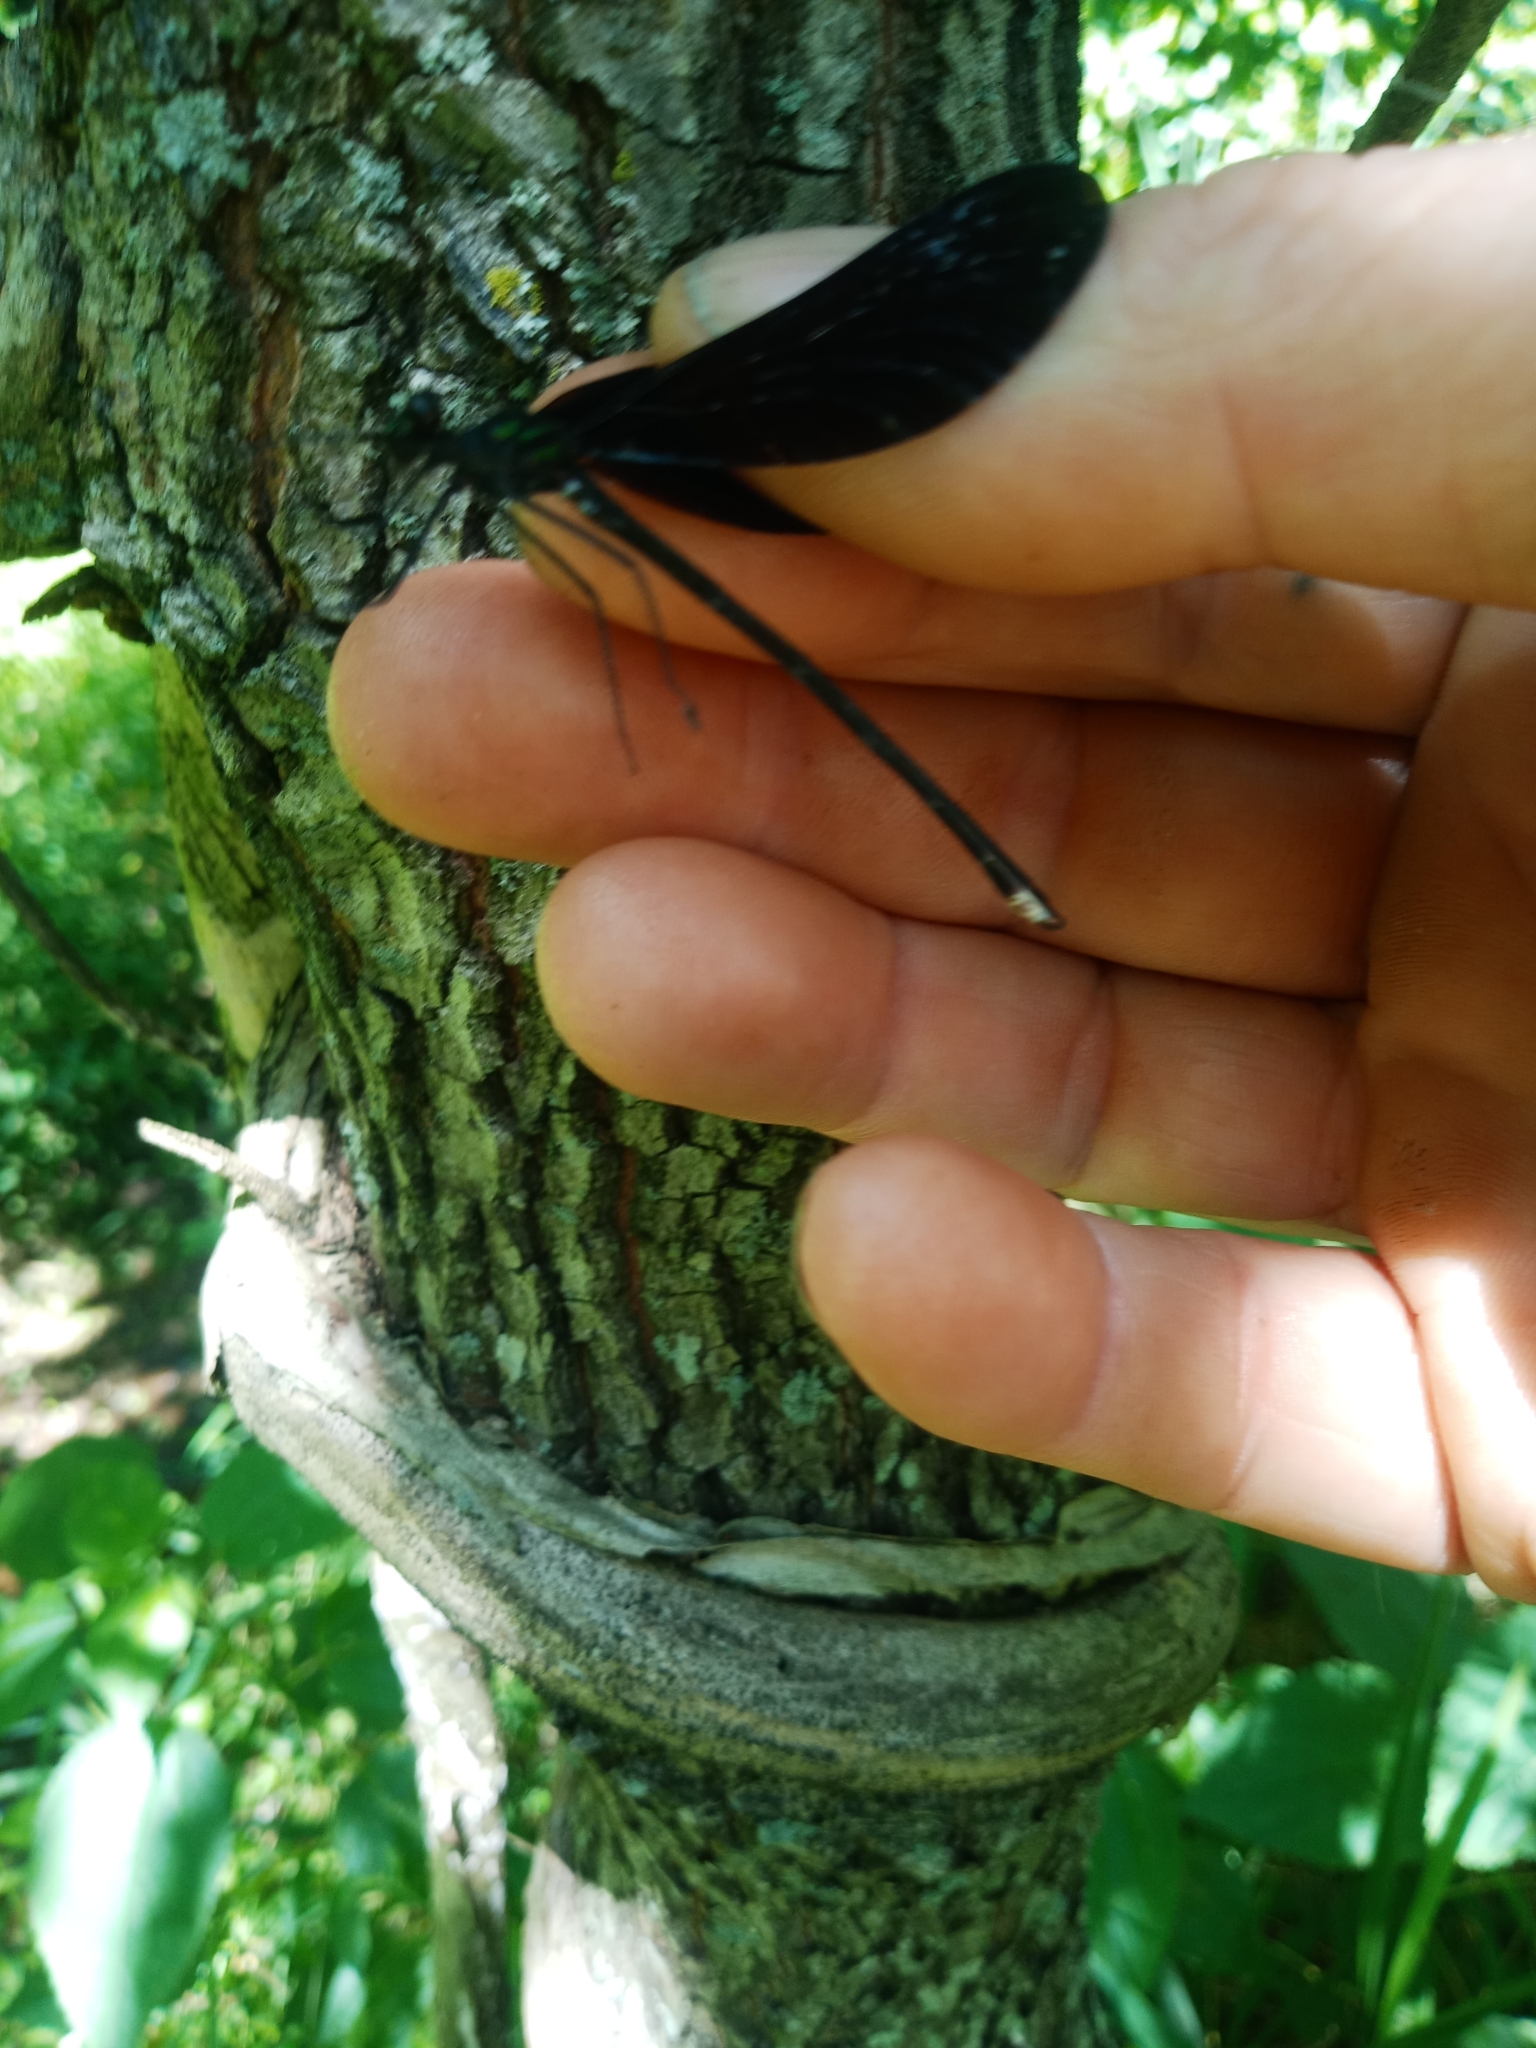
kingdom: Animalia
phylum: Arthropoda
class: Insecta
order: Odonata
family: Calopterygidae
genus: Calopteryx
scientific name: Calopteryx maculata
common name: Ebony jewelwing
